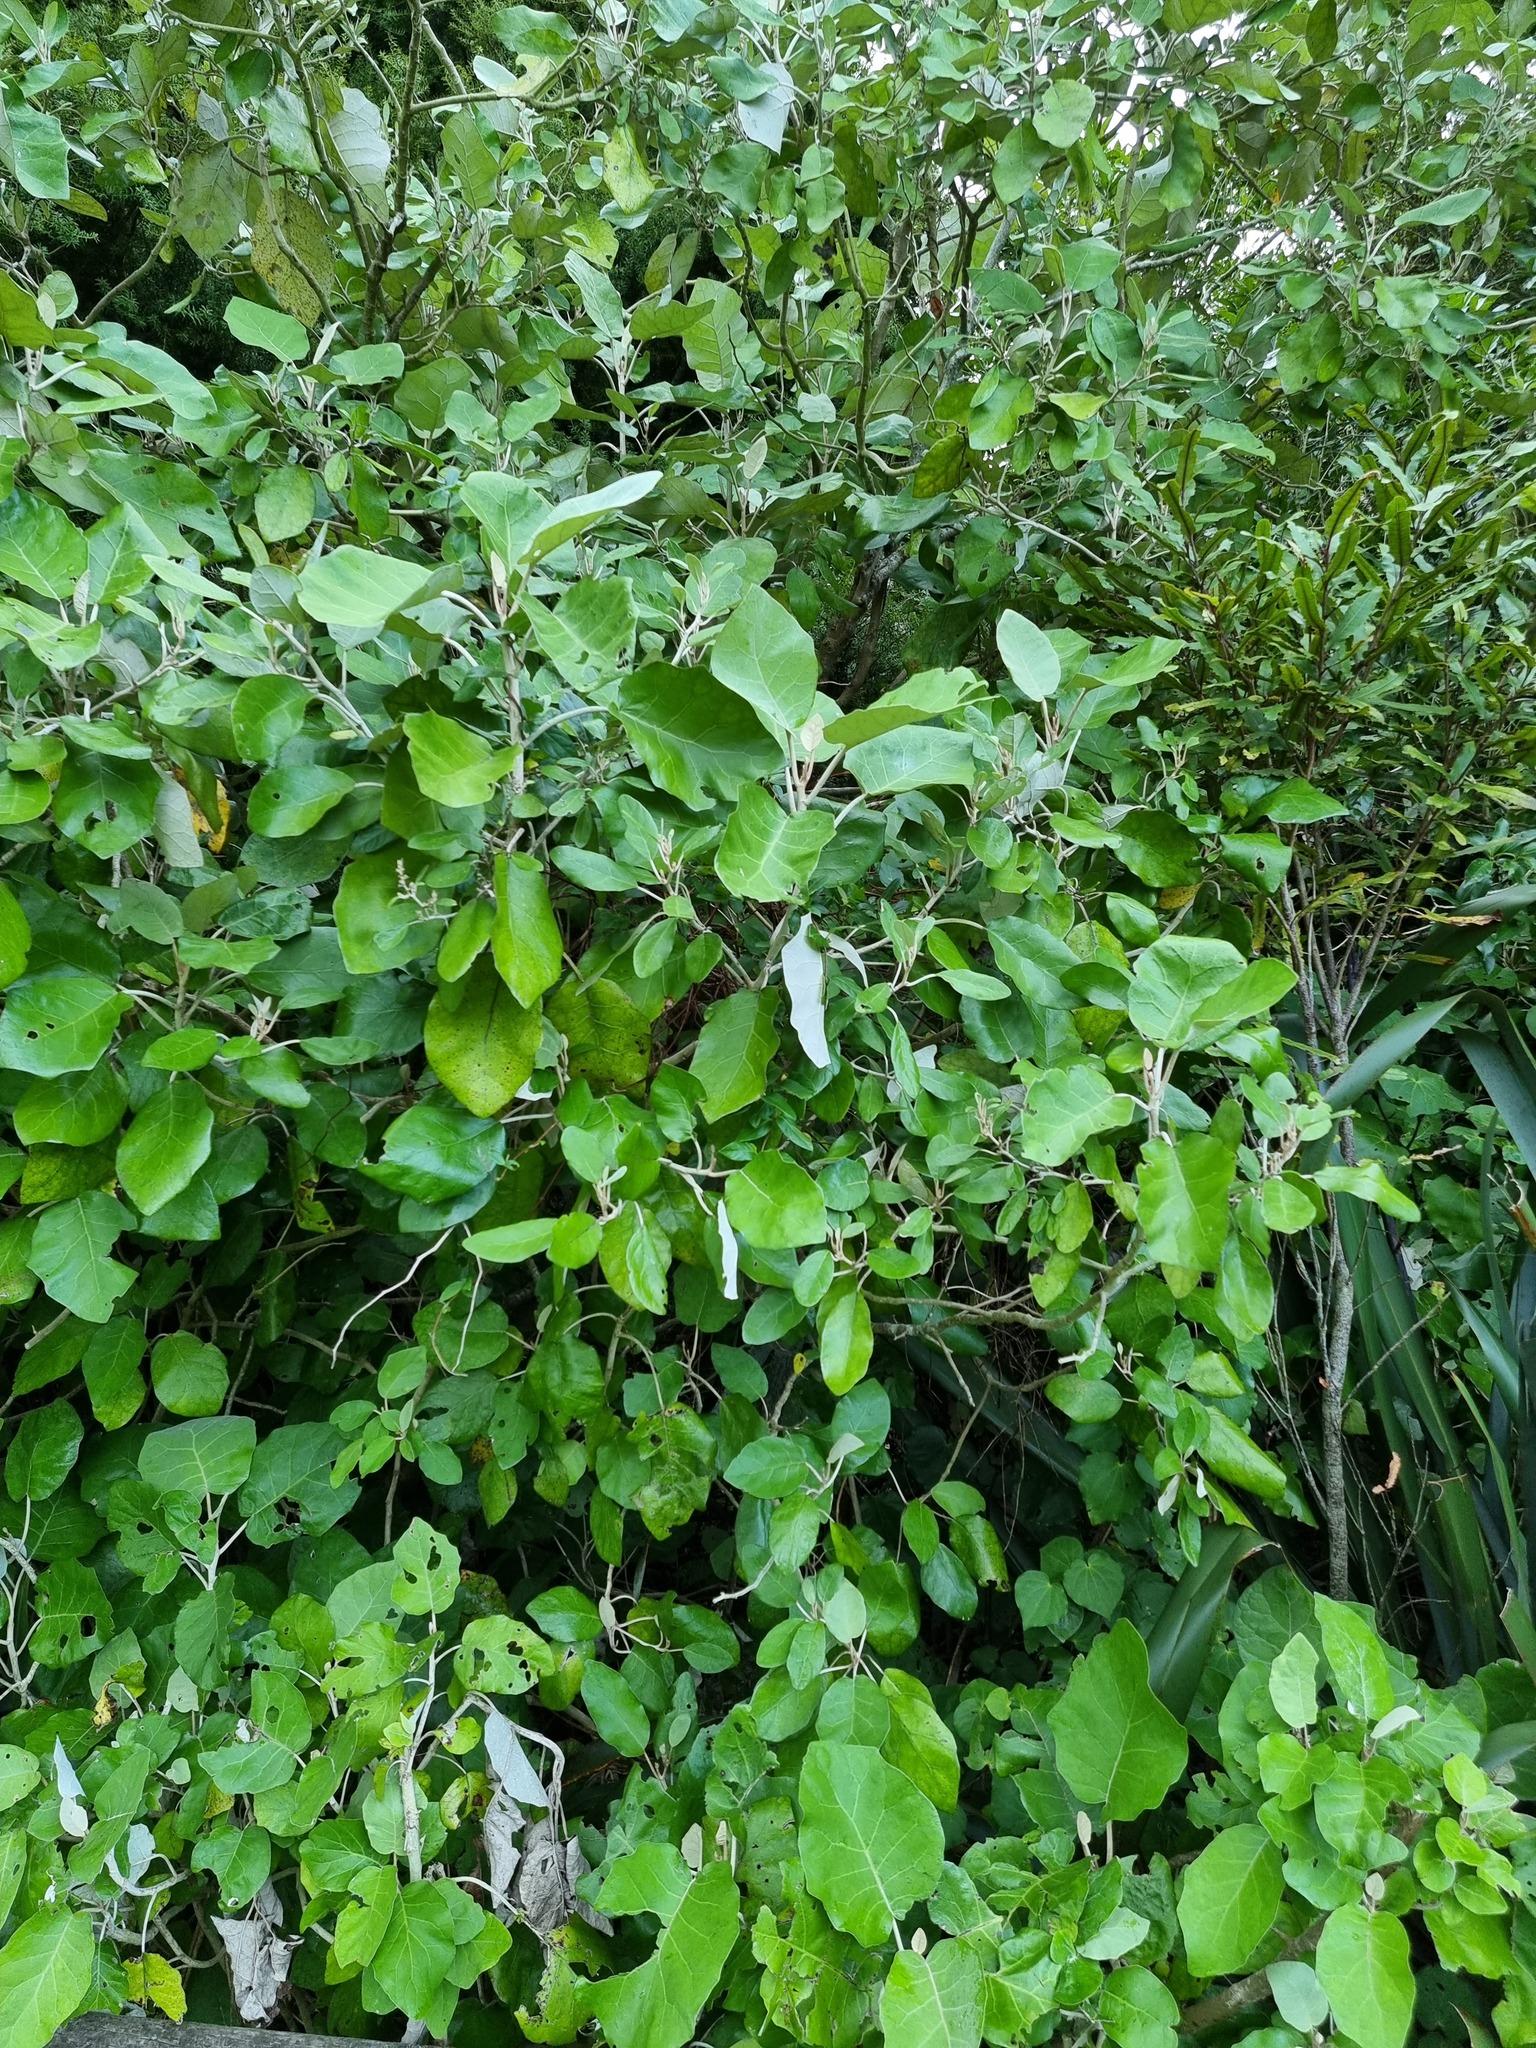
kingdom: Plantae
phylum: Tracheophyta
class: Magnoliopsida
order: Asterales
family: Asteraceae
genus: Brachyglottis
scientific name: Brachyglottis repanda
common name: Hedge ragwort
